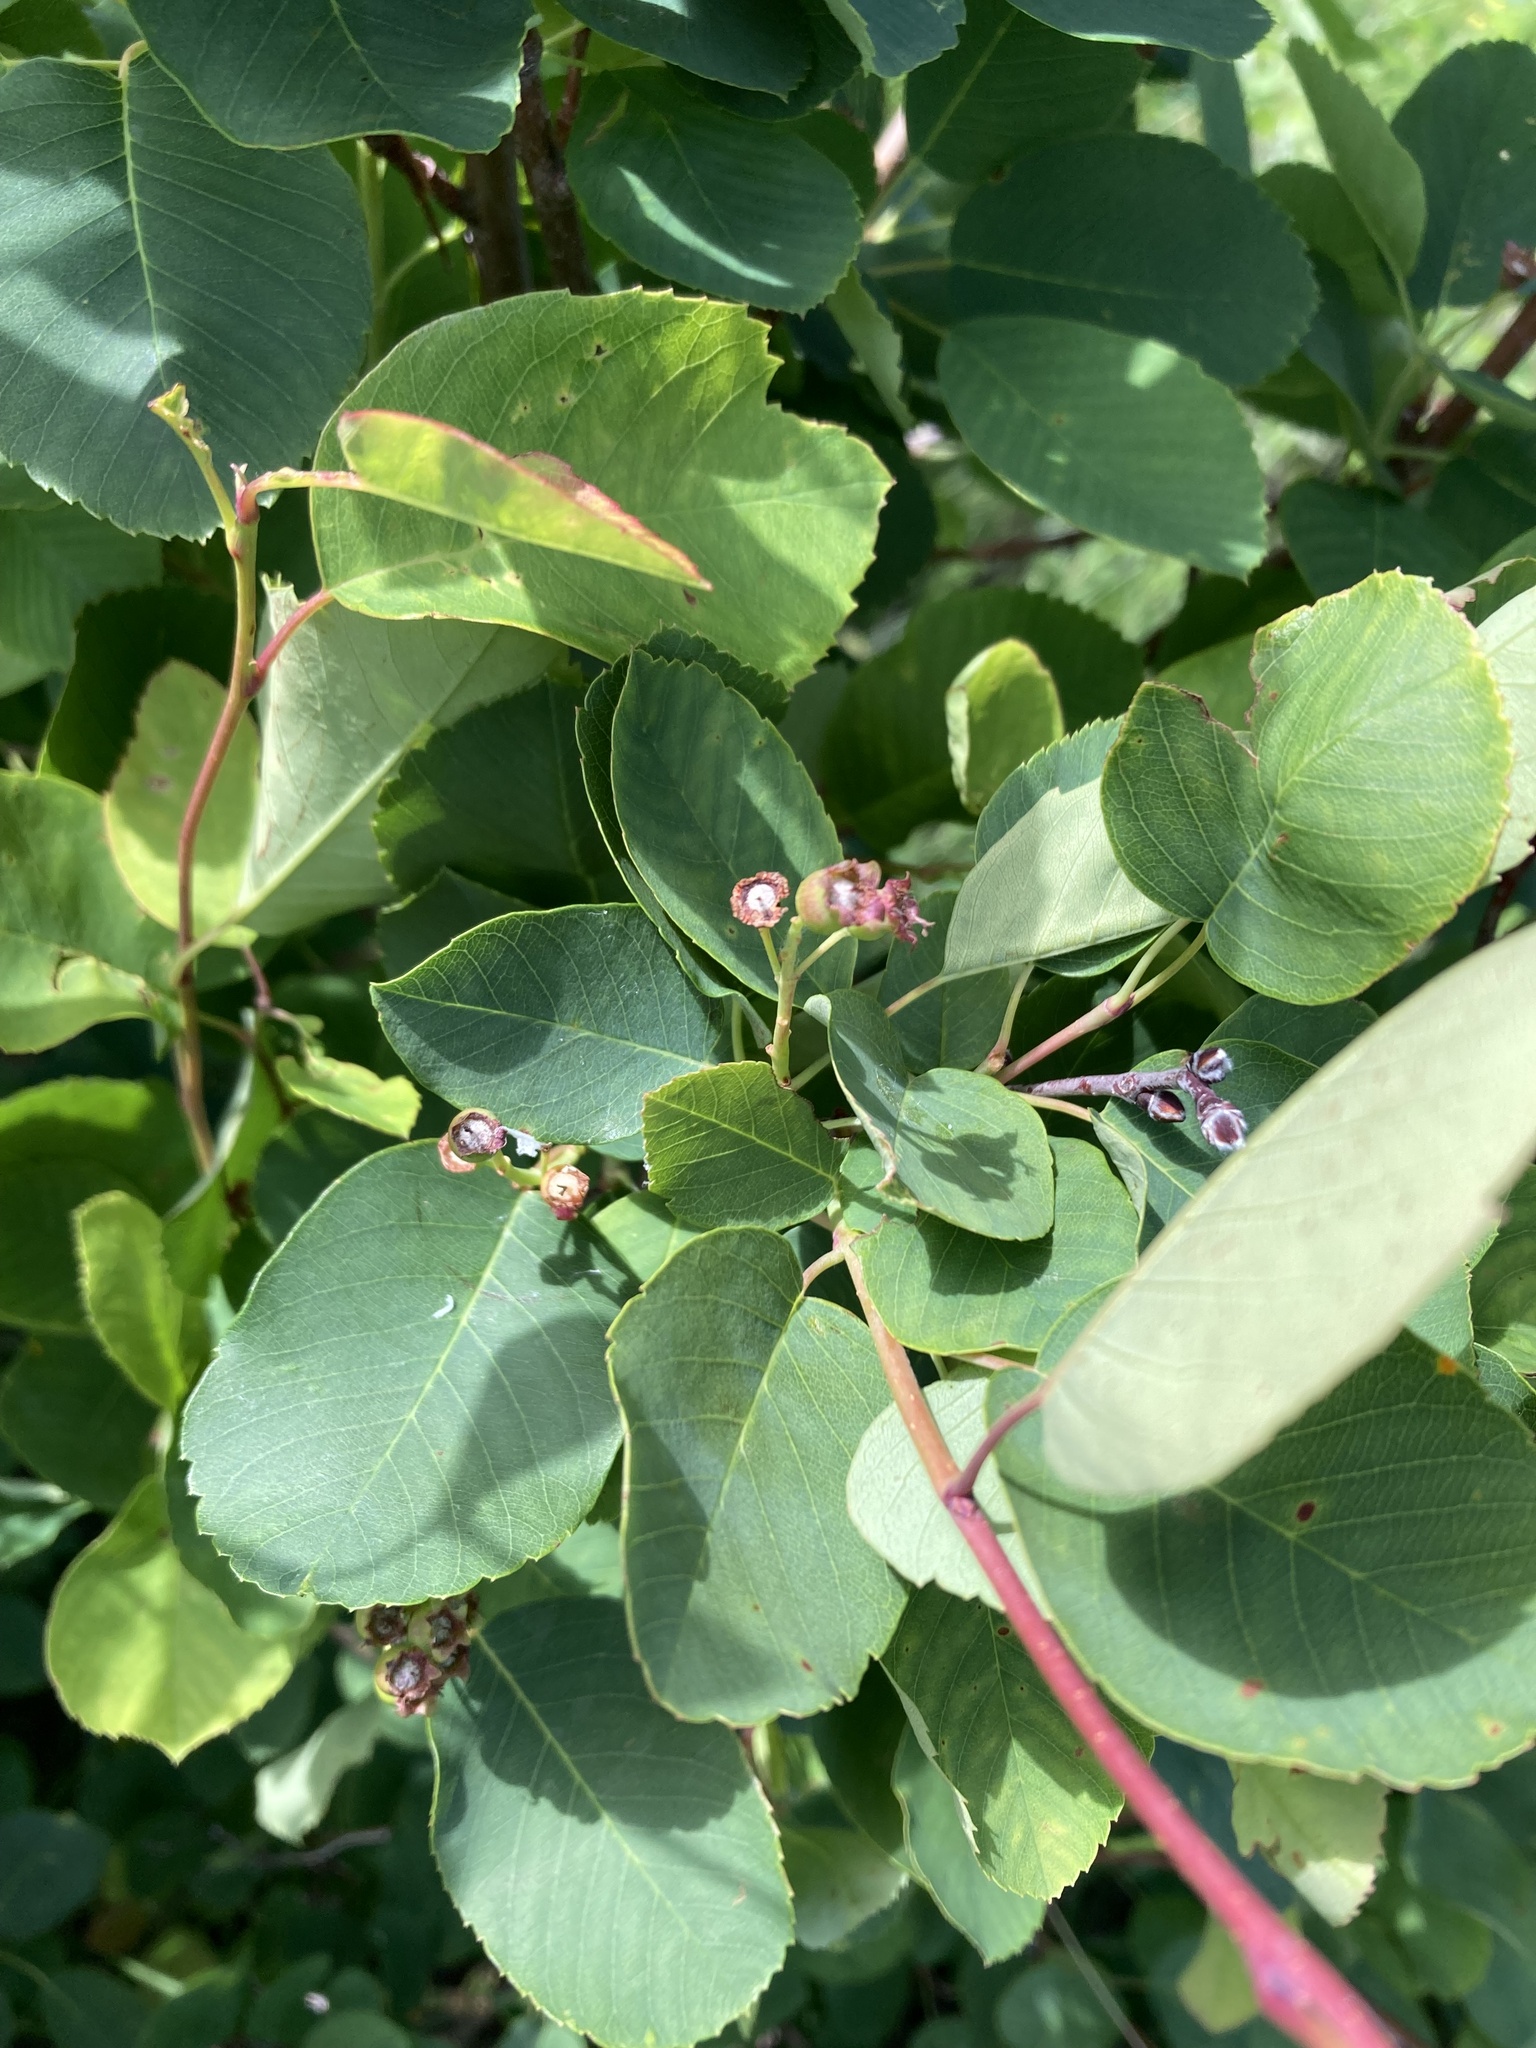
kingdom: Plantae
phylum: Tracheophyta
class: Magnoliopsida
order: Rosales
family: Rosaceae
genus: Amelanchier
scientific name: Amelanchier alnifolia
